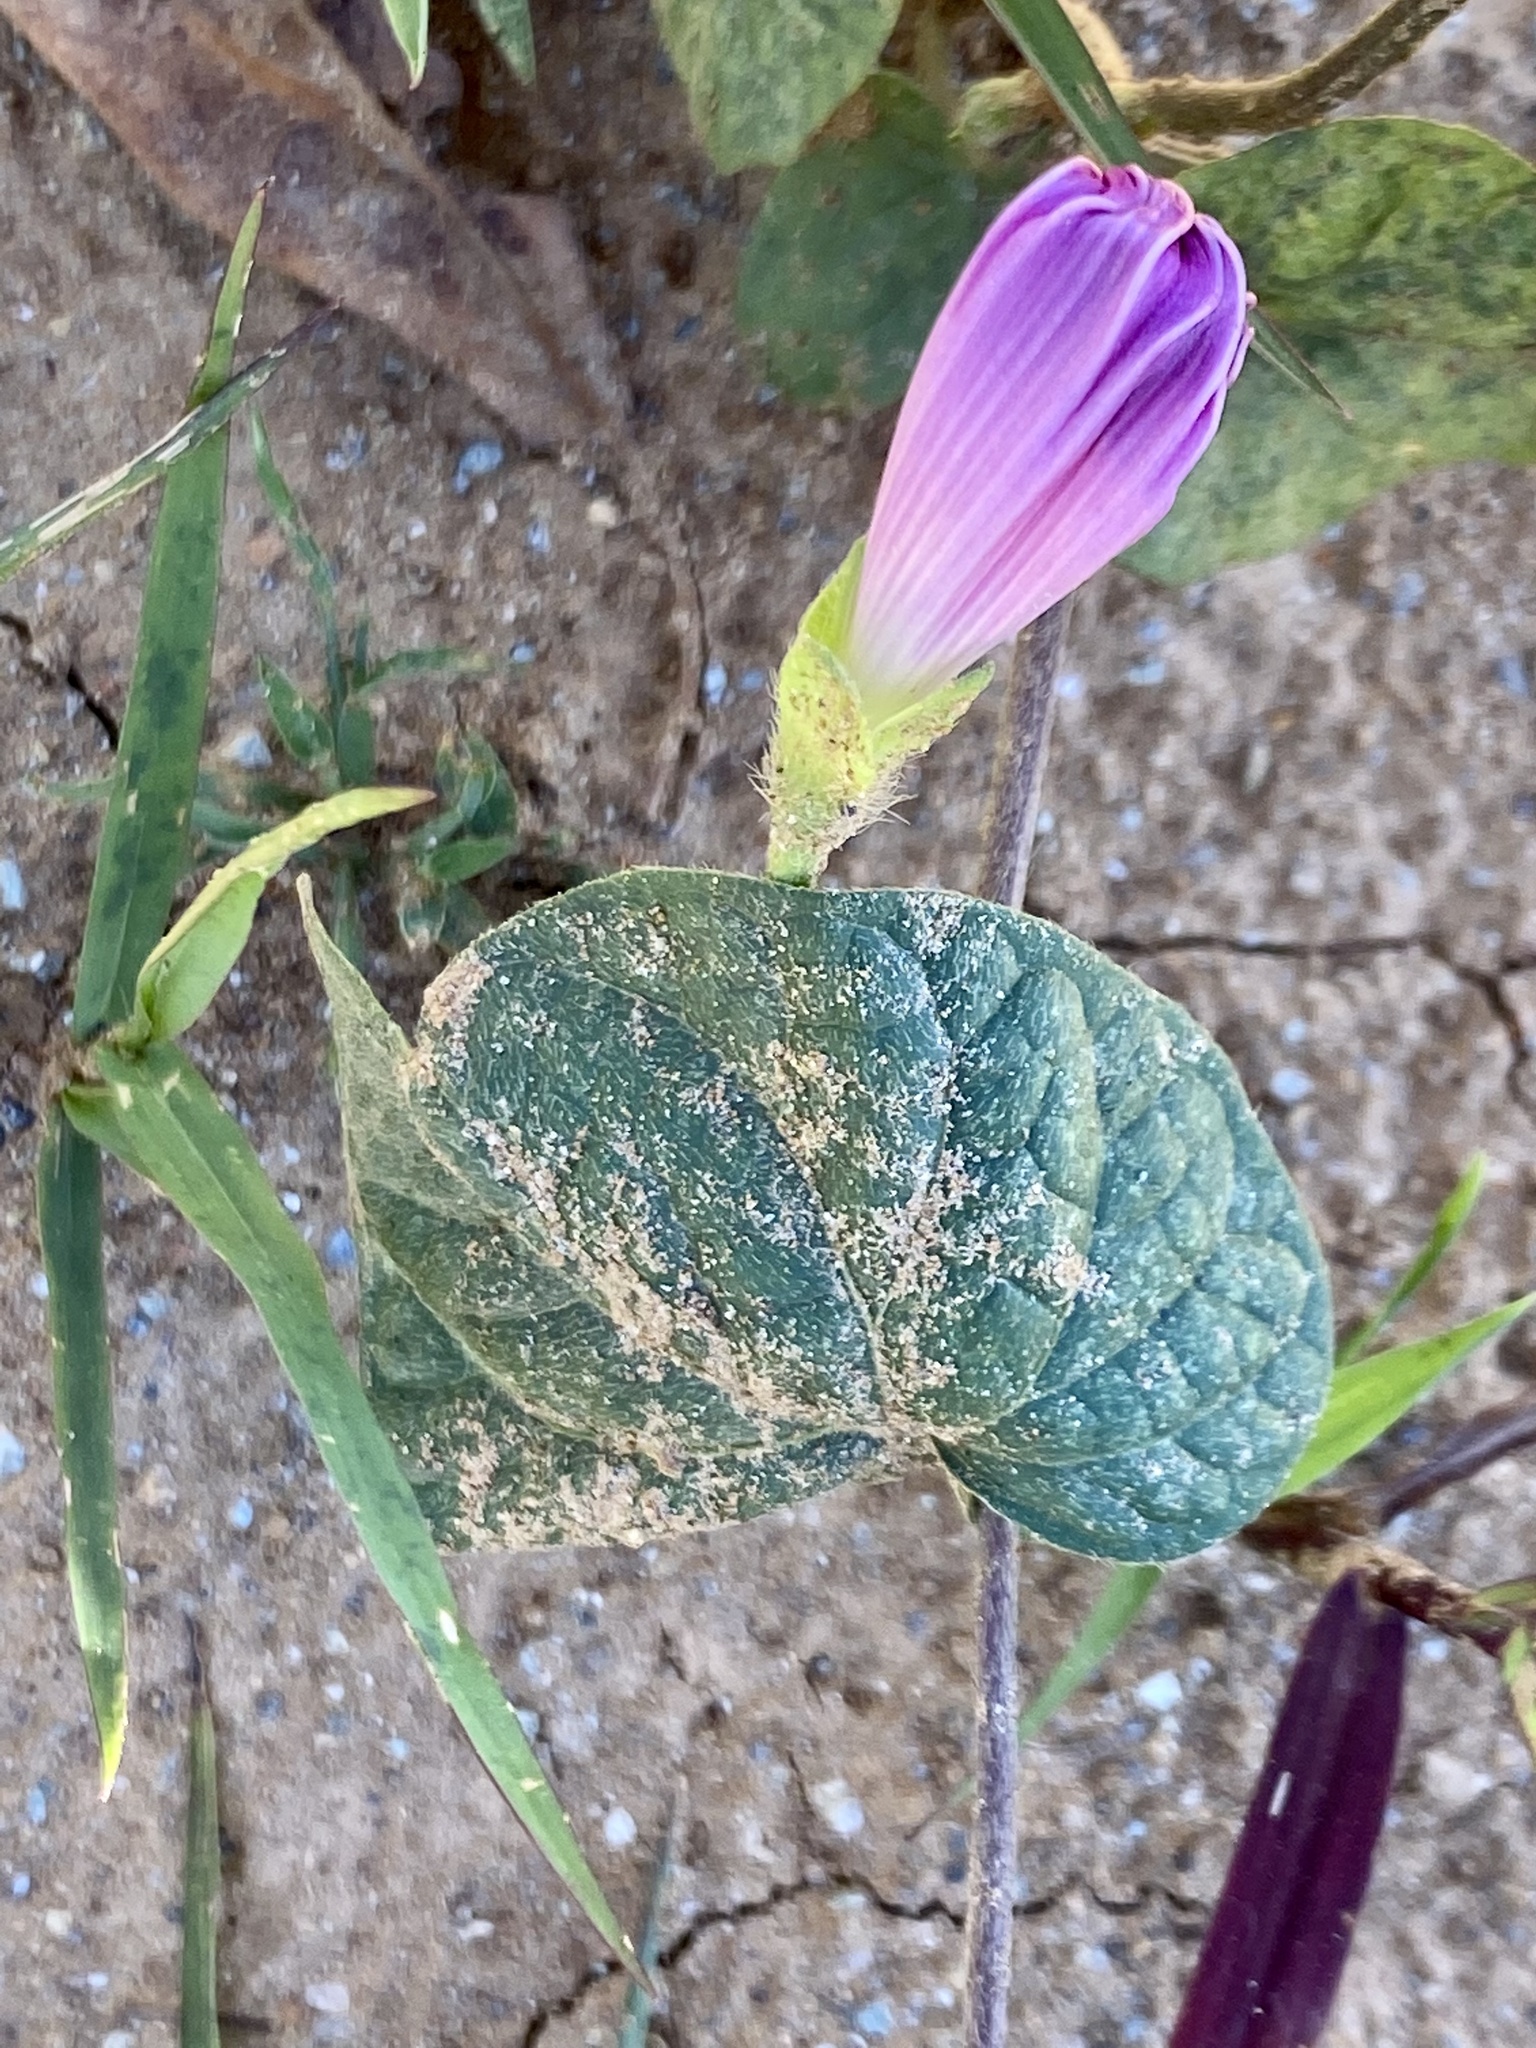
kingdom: Plantae
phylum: Tracheophyta
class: Magnoliopsida
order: Solanales
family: Convolvulaceae
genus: Ipomoea
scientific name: Ipomoea purpurea
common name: Common morning-glory
